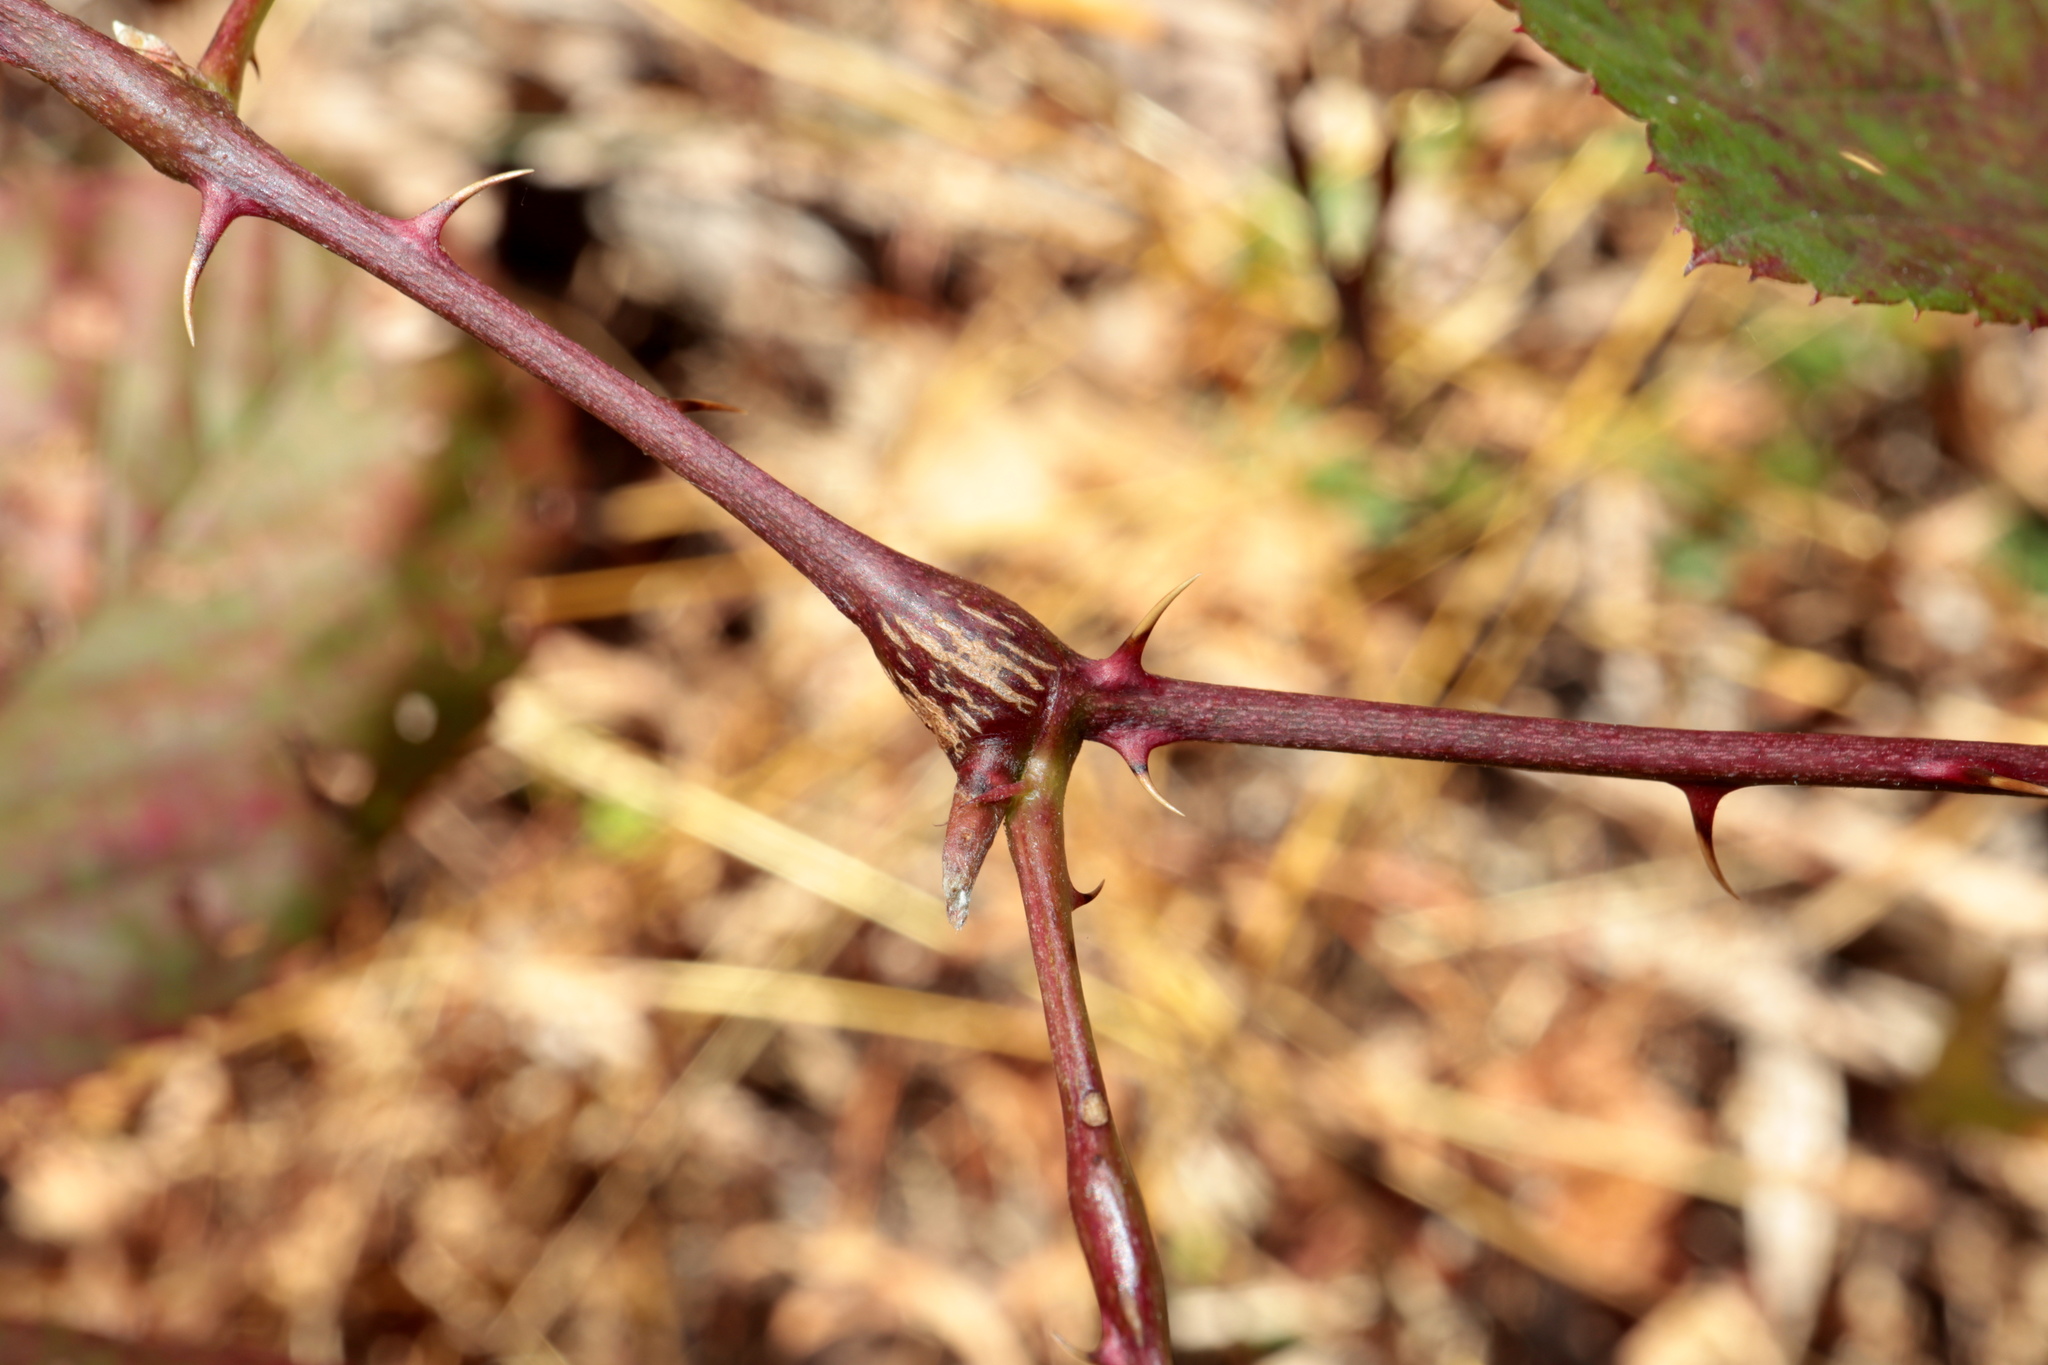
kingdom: Animalia
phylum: Arthropoda
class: Insecta
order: Diptera
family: Cecidomyiidae
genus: Neolasioptera
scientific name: Neolasioptera nodulosa
